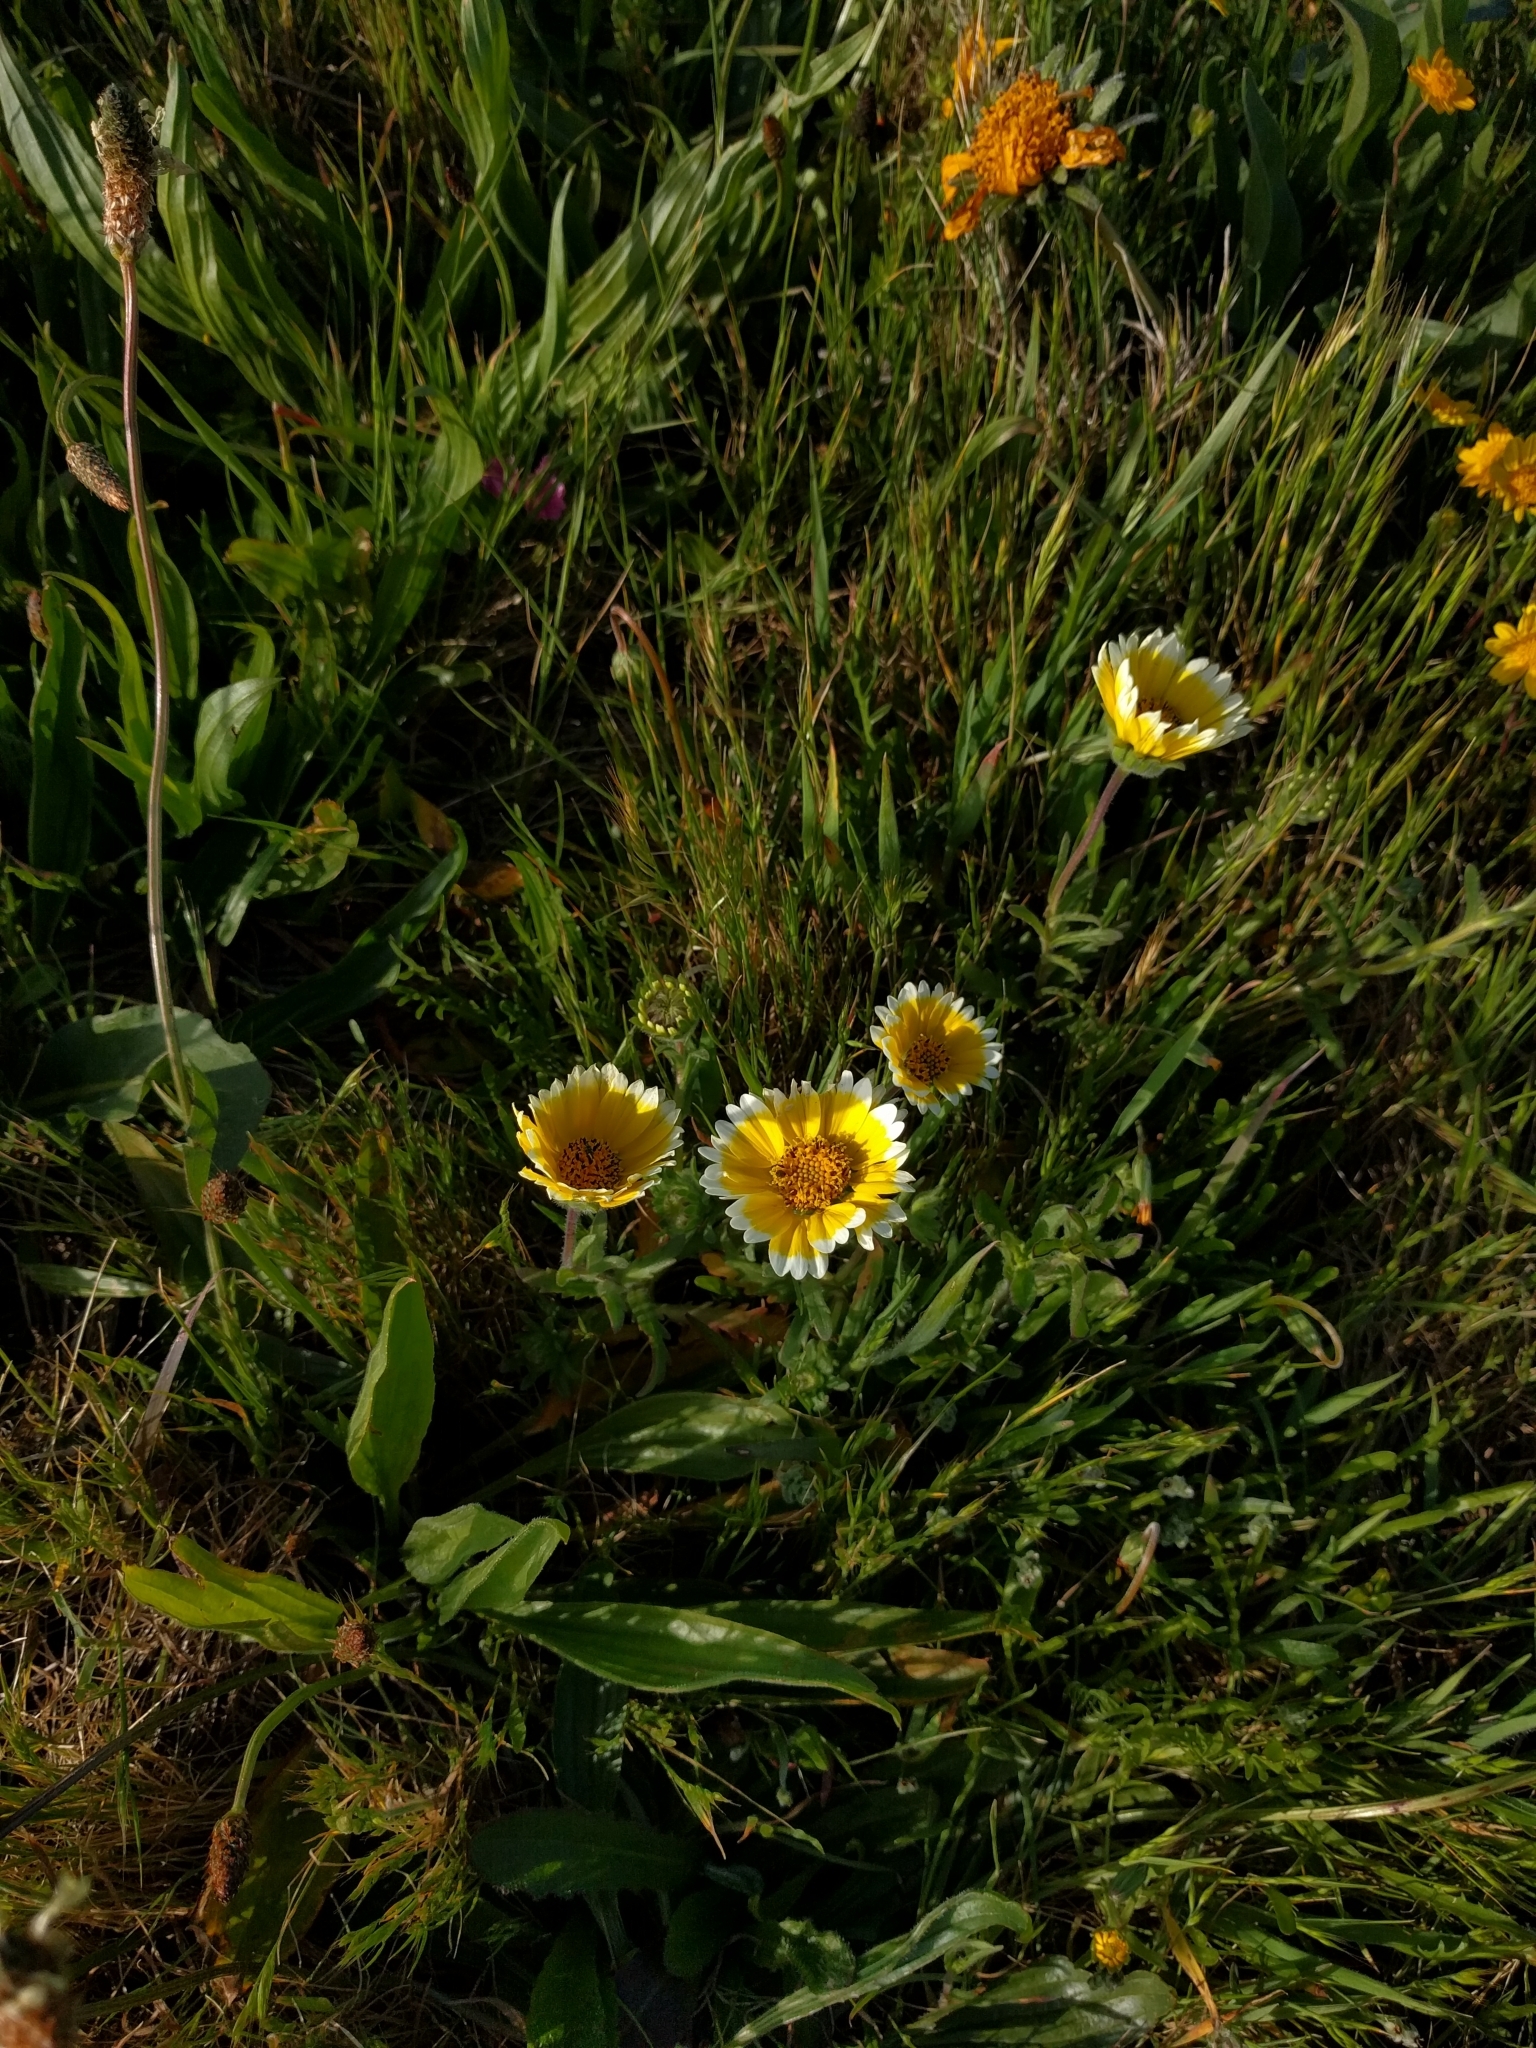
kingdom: Plantae
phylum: Tracheophyta
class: Magnoliopsida
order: Asterales
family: Asteraceae
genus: Layia
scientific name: Layia platyglossa
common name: Tidy-tips
